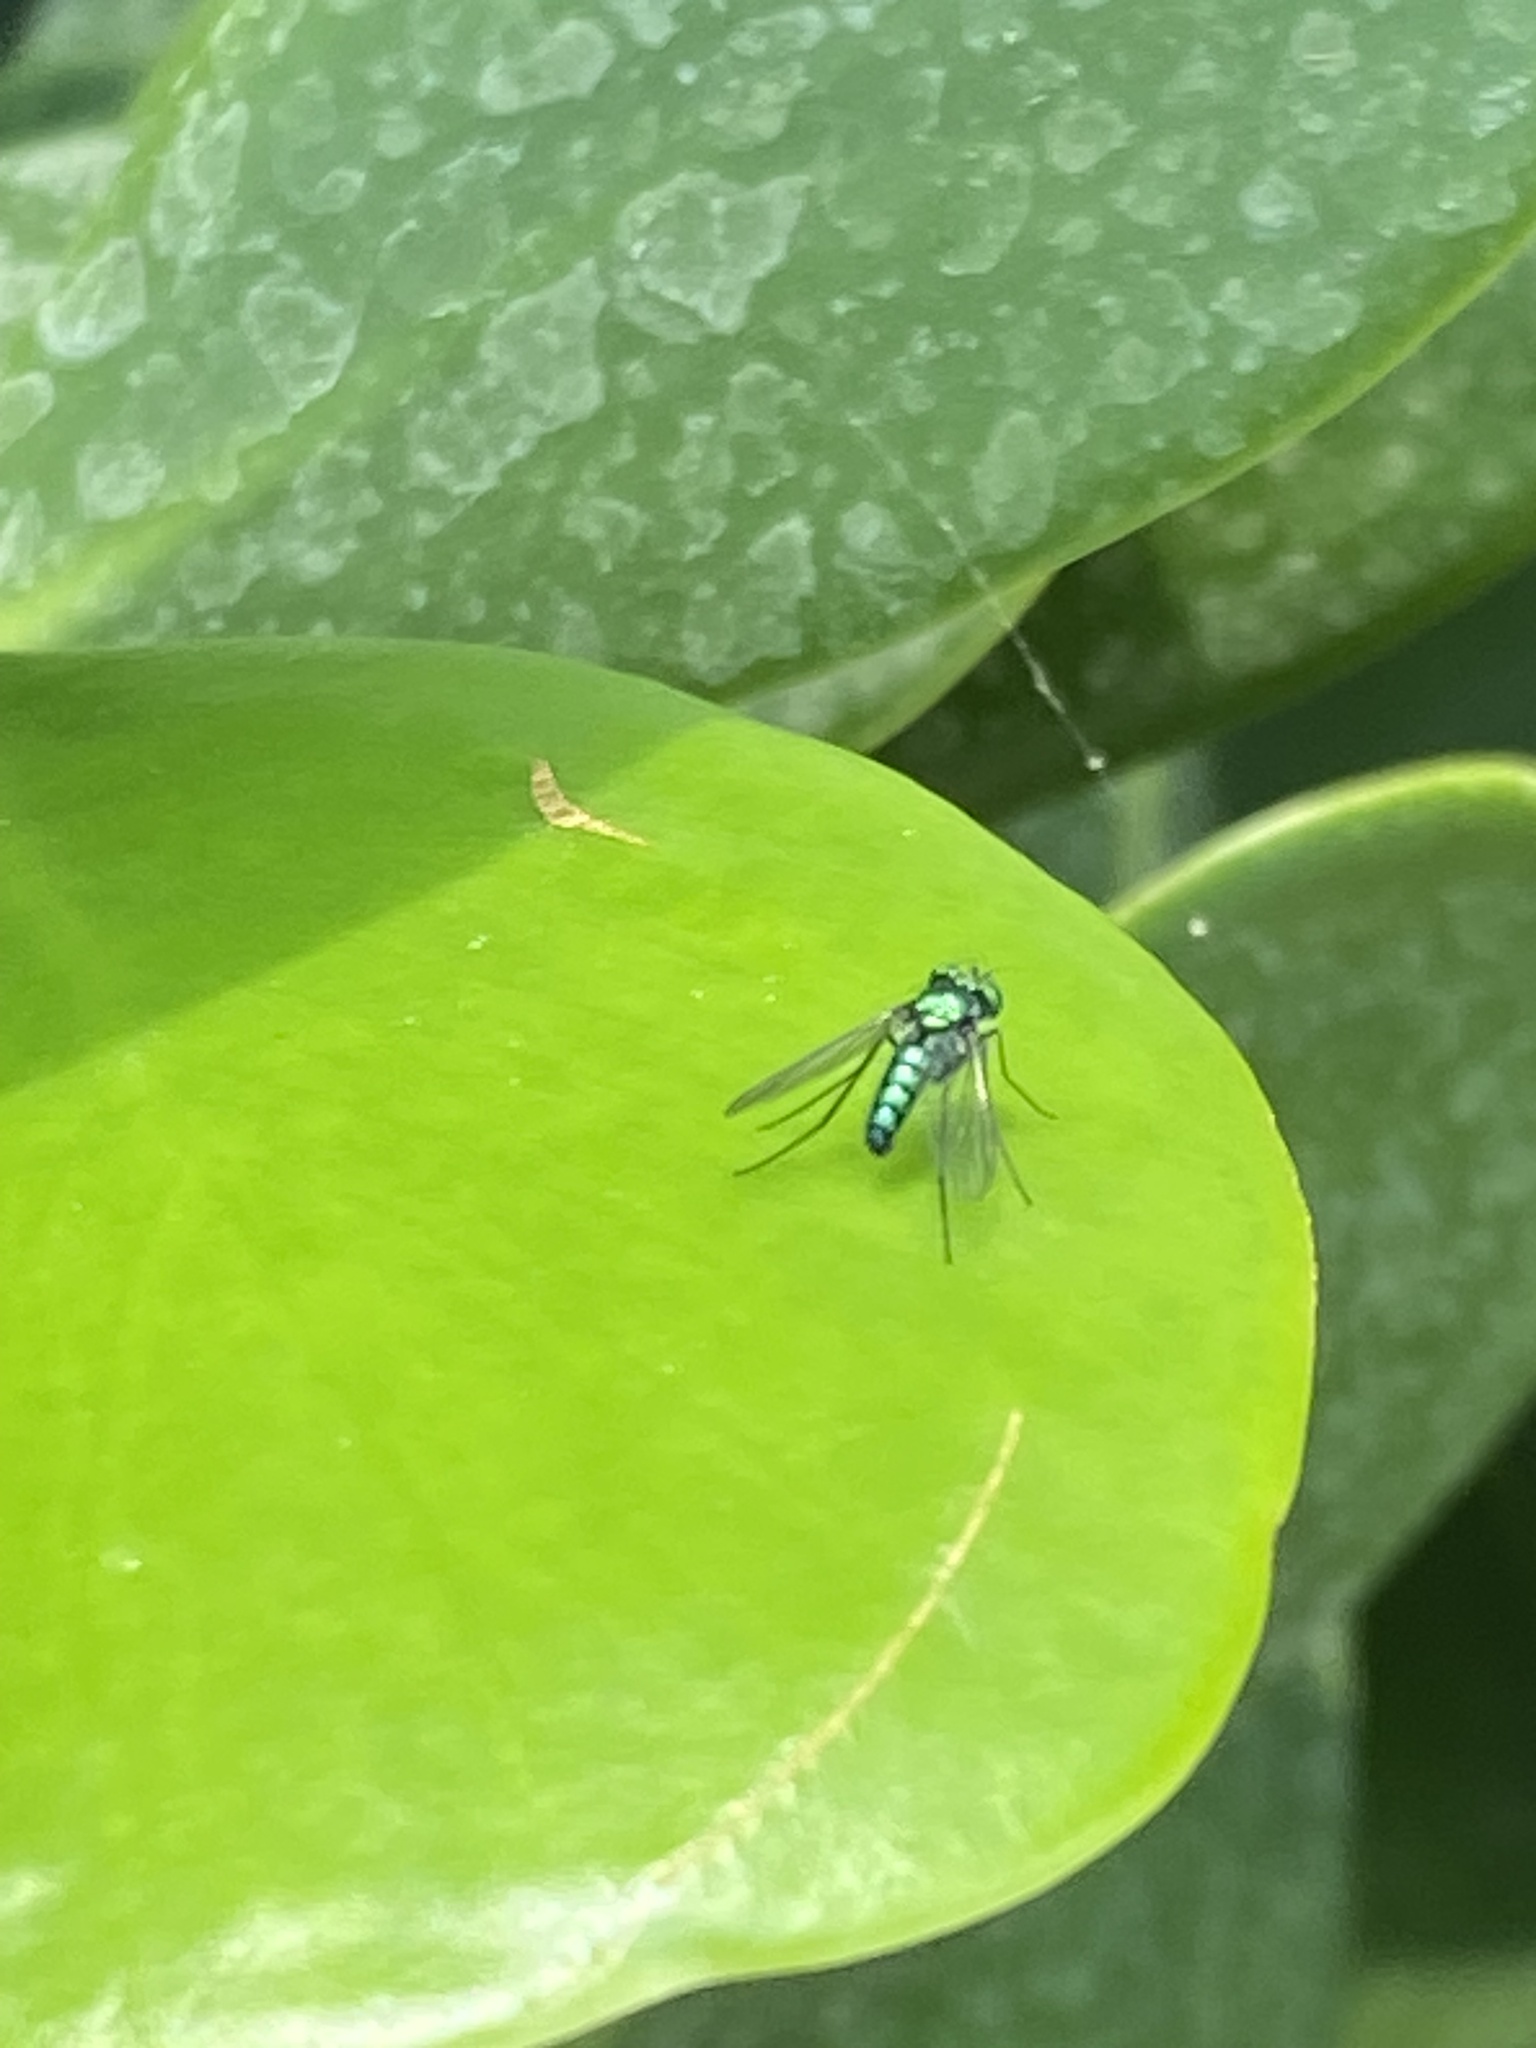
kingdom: Animalia
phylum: Arthropoda
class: Insecta
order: Diptera
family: Dolichopodidae
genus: Condylostylus
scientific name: Condylostylus purpureus
